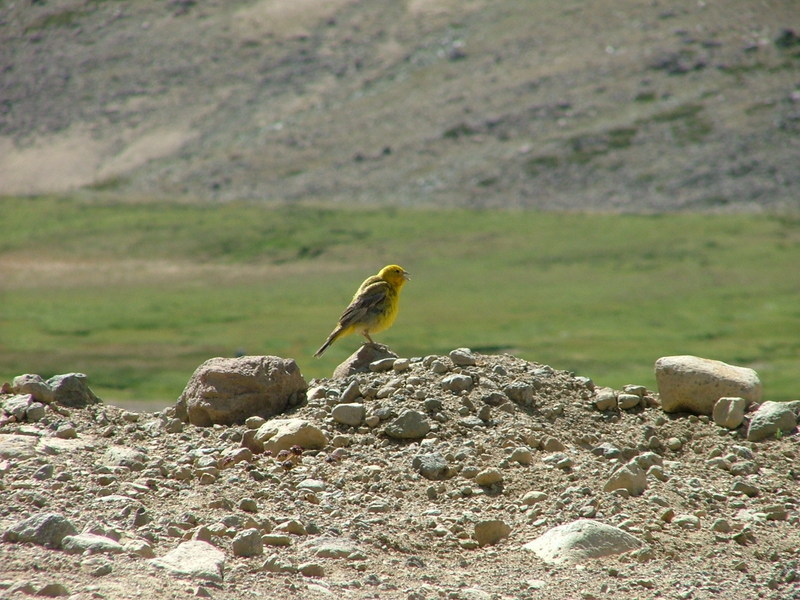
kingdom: Animalia
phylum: Chordata
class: Aves
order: Passeriformes
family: Thraupidae
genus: Sicalis
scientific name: Sicalis auriventris
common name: Greater yellow finch
